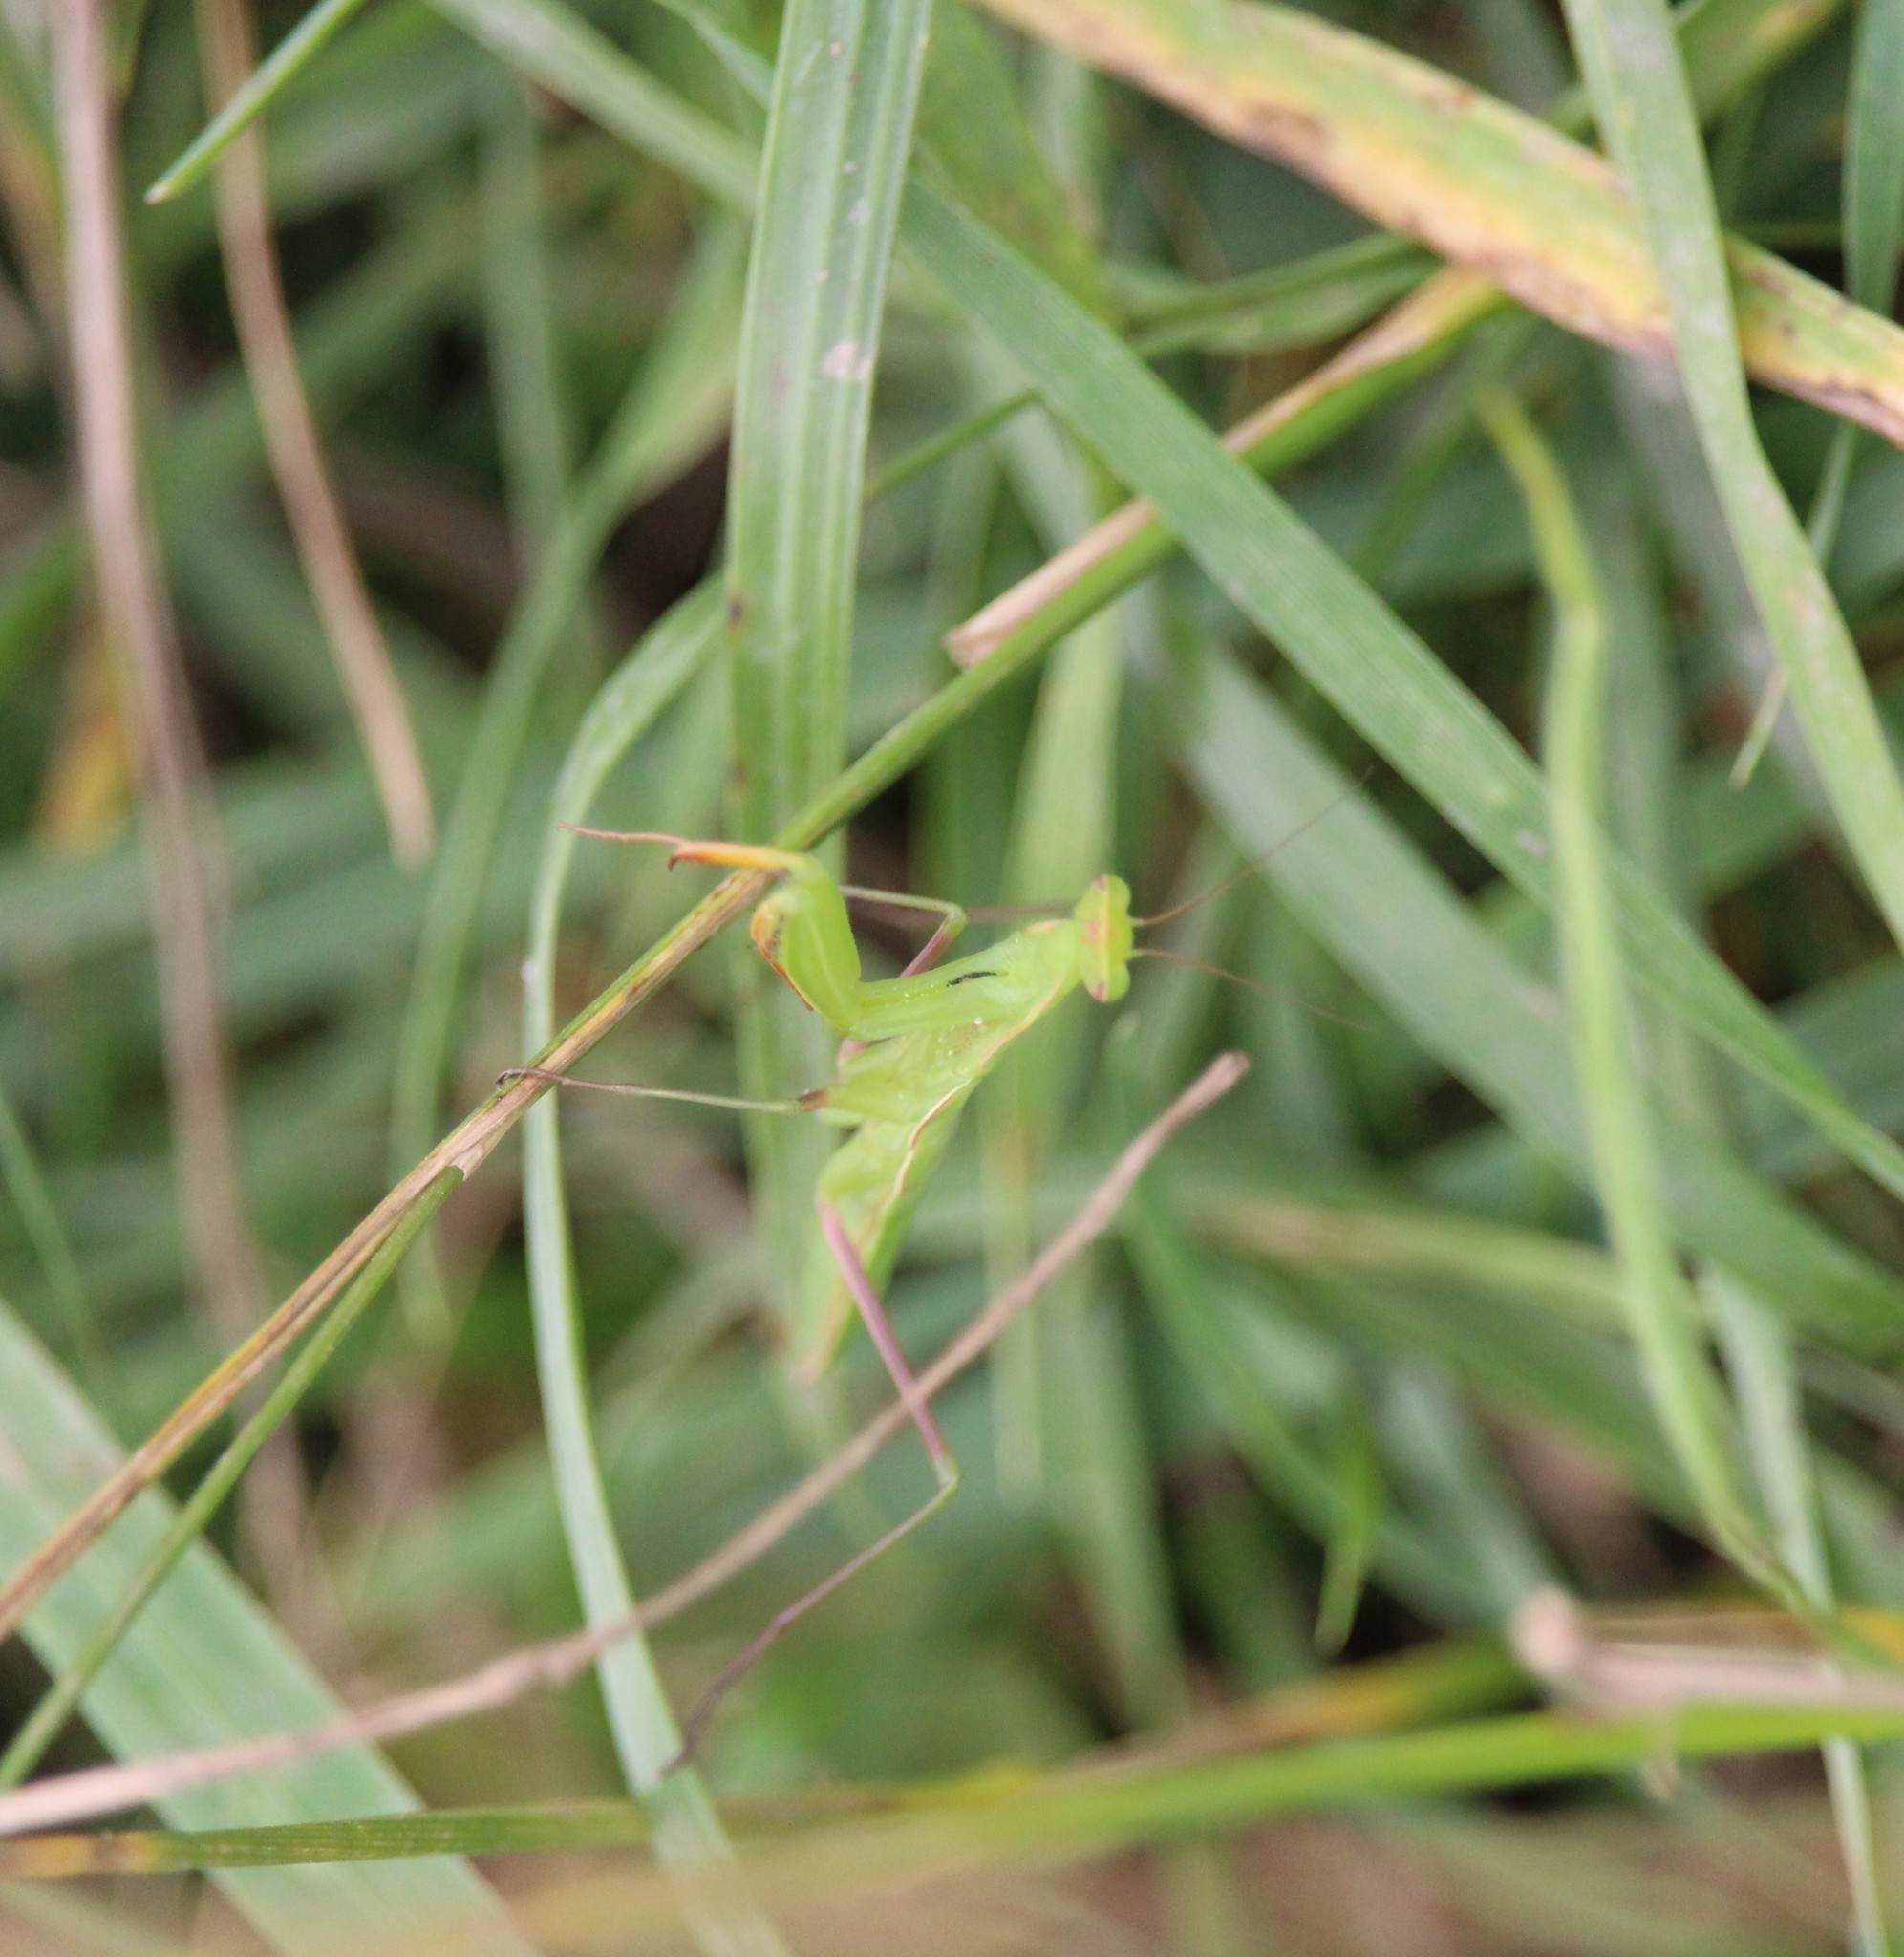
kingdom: Animalia
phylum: Arthropoda
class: Insecta
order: Mantodea
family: Mantidae
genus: Mantis
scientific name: Mantis religiosa
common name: Praying mantis
